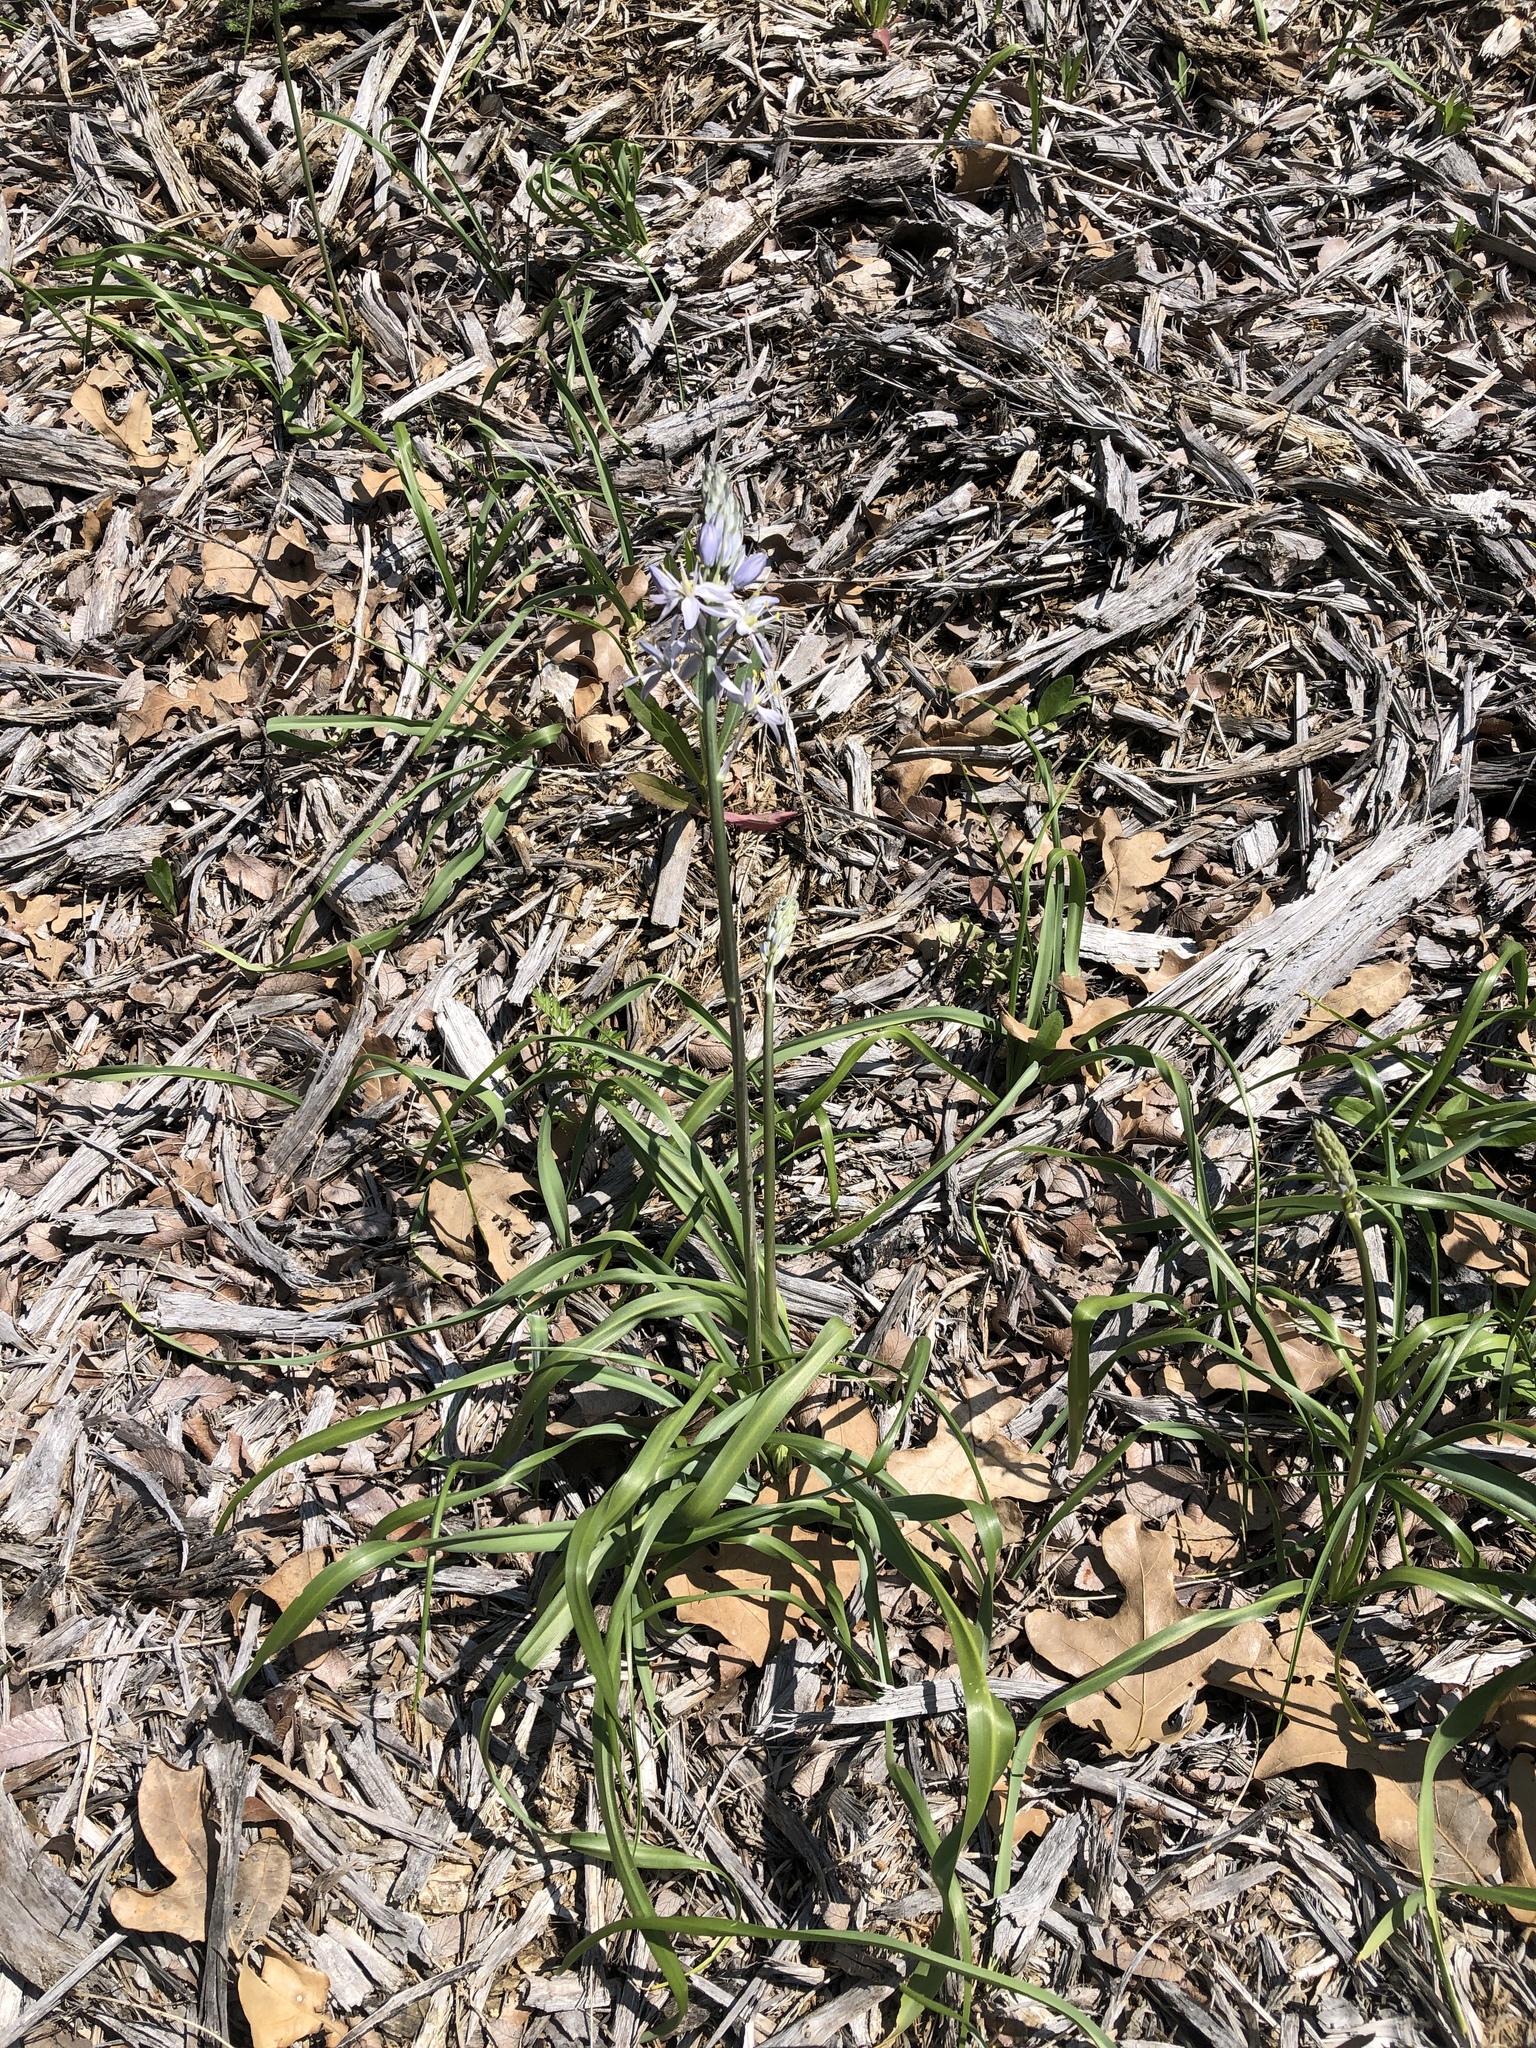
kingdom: Plantae
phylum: Tracheophyta
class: Liliopsida
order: Asparagales
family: Asparagaceae
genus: Camassia
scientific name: Camassia scilloides
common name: Wild hyacinth
